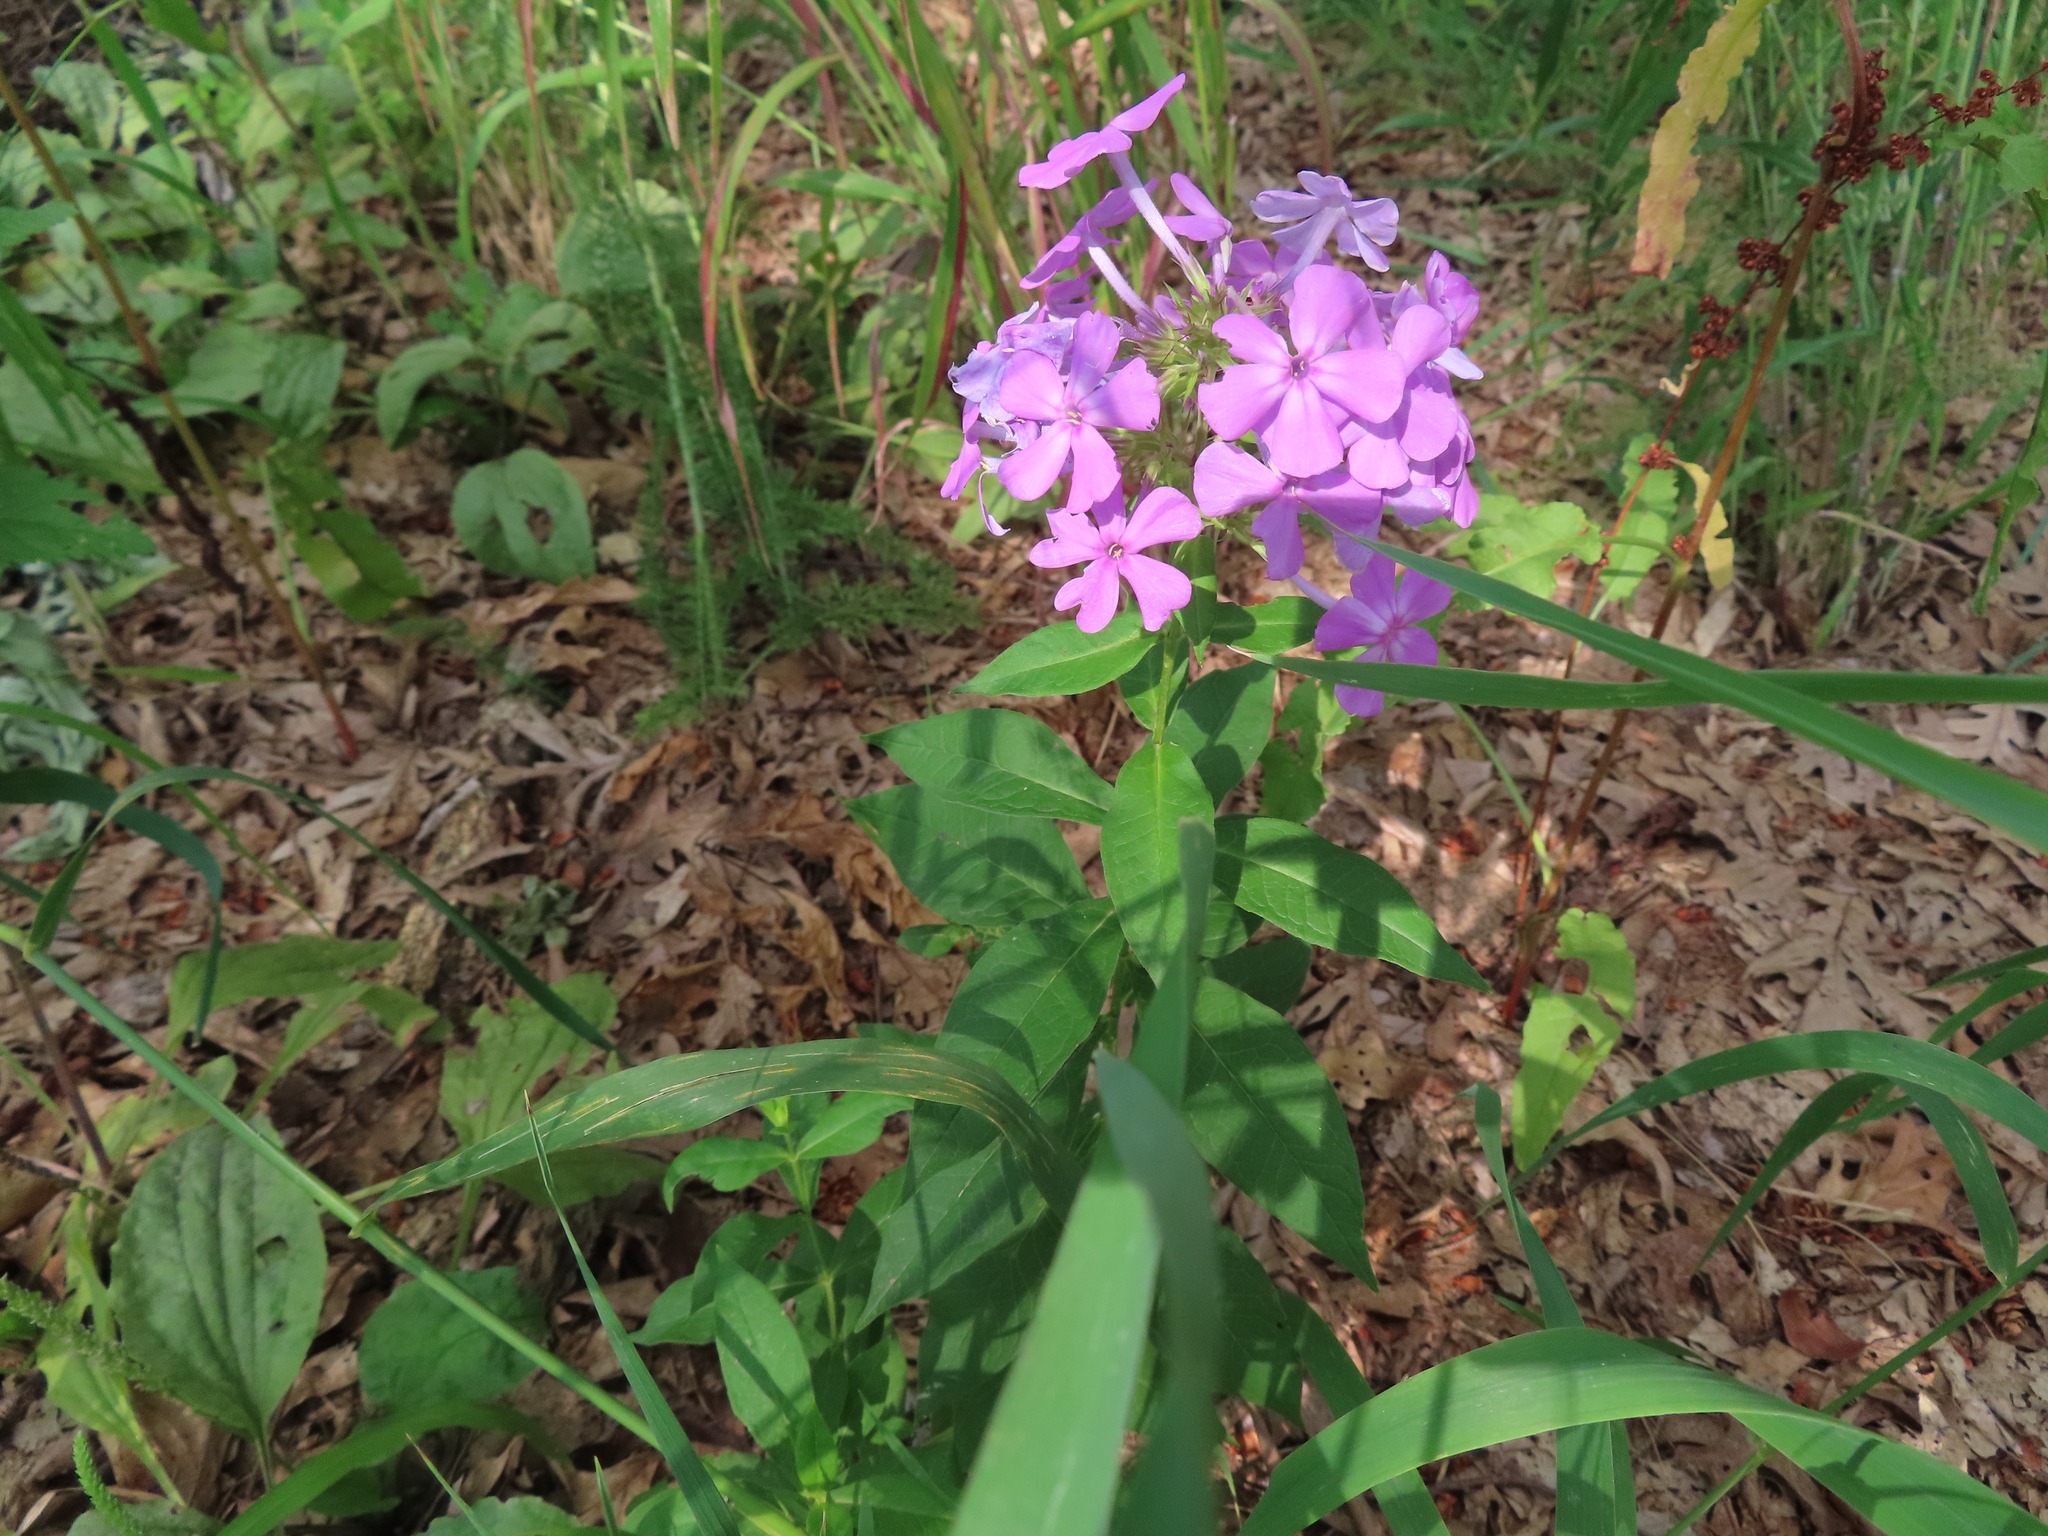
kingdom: Plantae
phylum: Tracheophyta
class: Magnoliopsida
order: Ericales
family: Polemoniaceae
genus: Phlox
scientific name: Phlox paniculata
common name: Fall phlox
